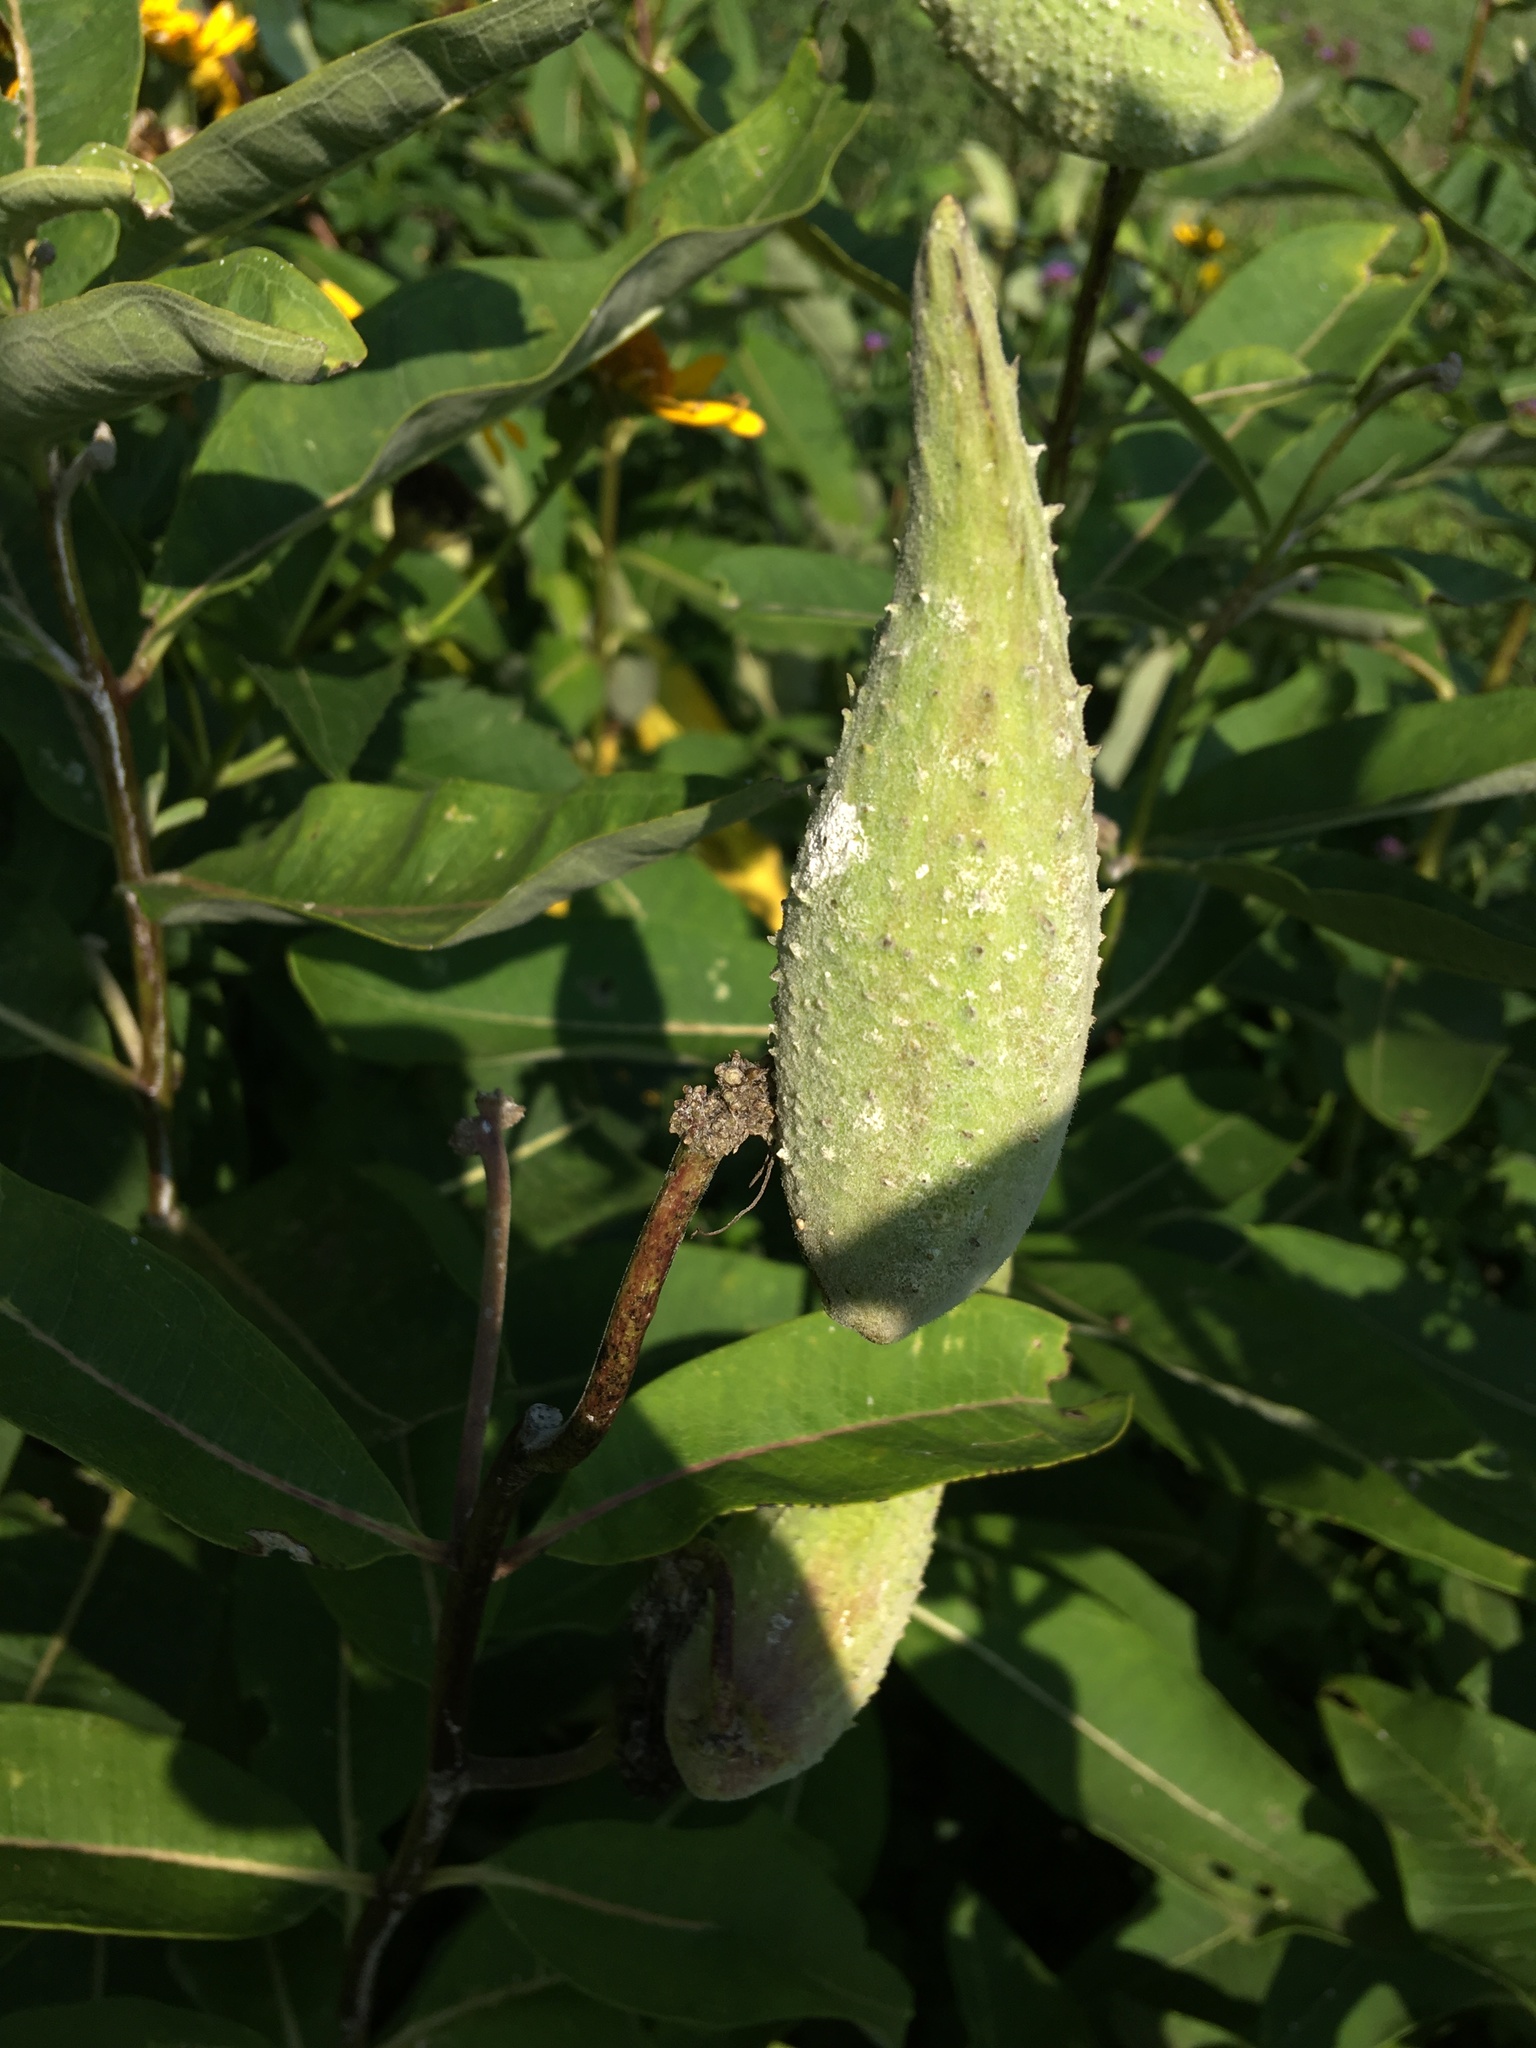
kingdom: Plantae
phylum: Tracheophyta
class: Magnoliopsida
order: Gentianales
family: Apocynaceae
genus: Asclepias
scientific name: Asclepias syriaca
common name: Common milkweed
